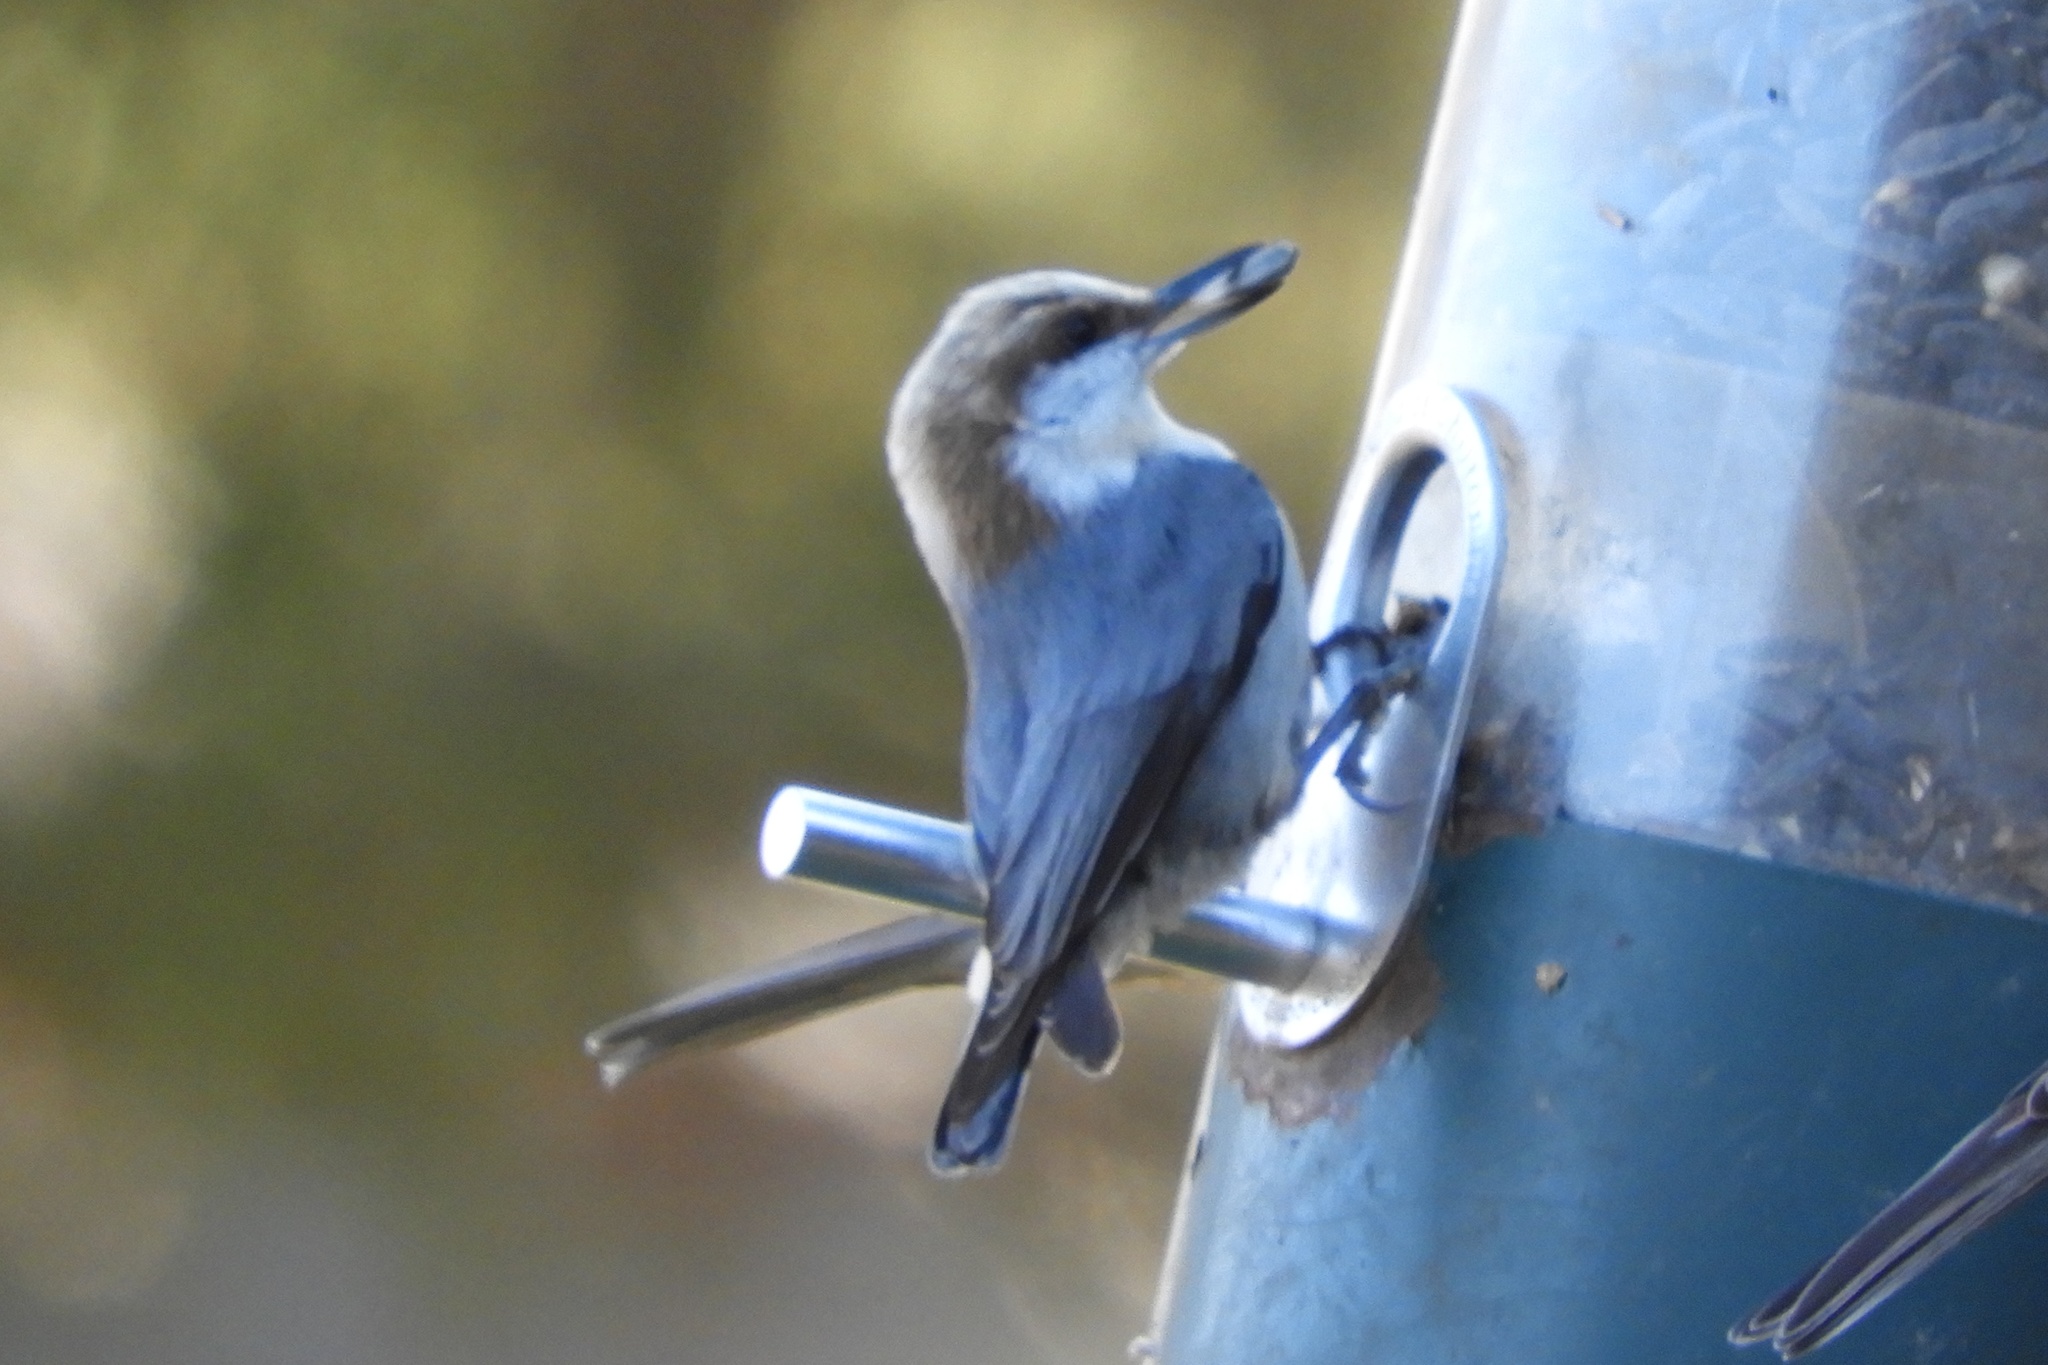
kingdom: Animalia
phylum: Chordata
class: Aves
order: Passeriformes
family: Sittidae
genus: Sitta
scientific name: Sitta pusilla
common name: Brown-headed nuthatch
